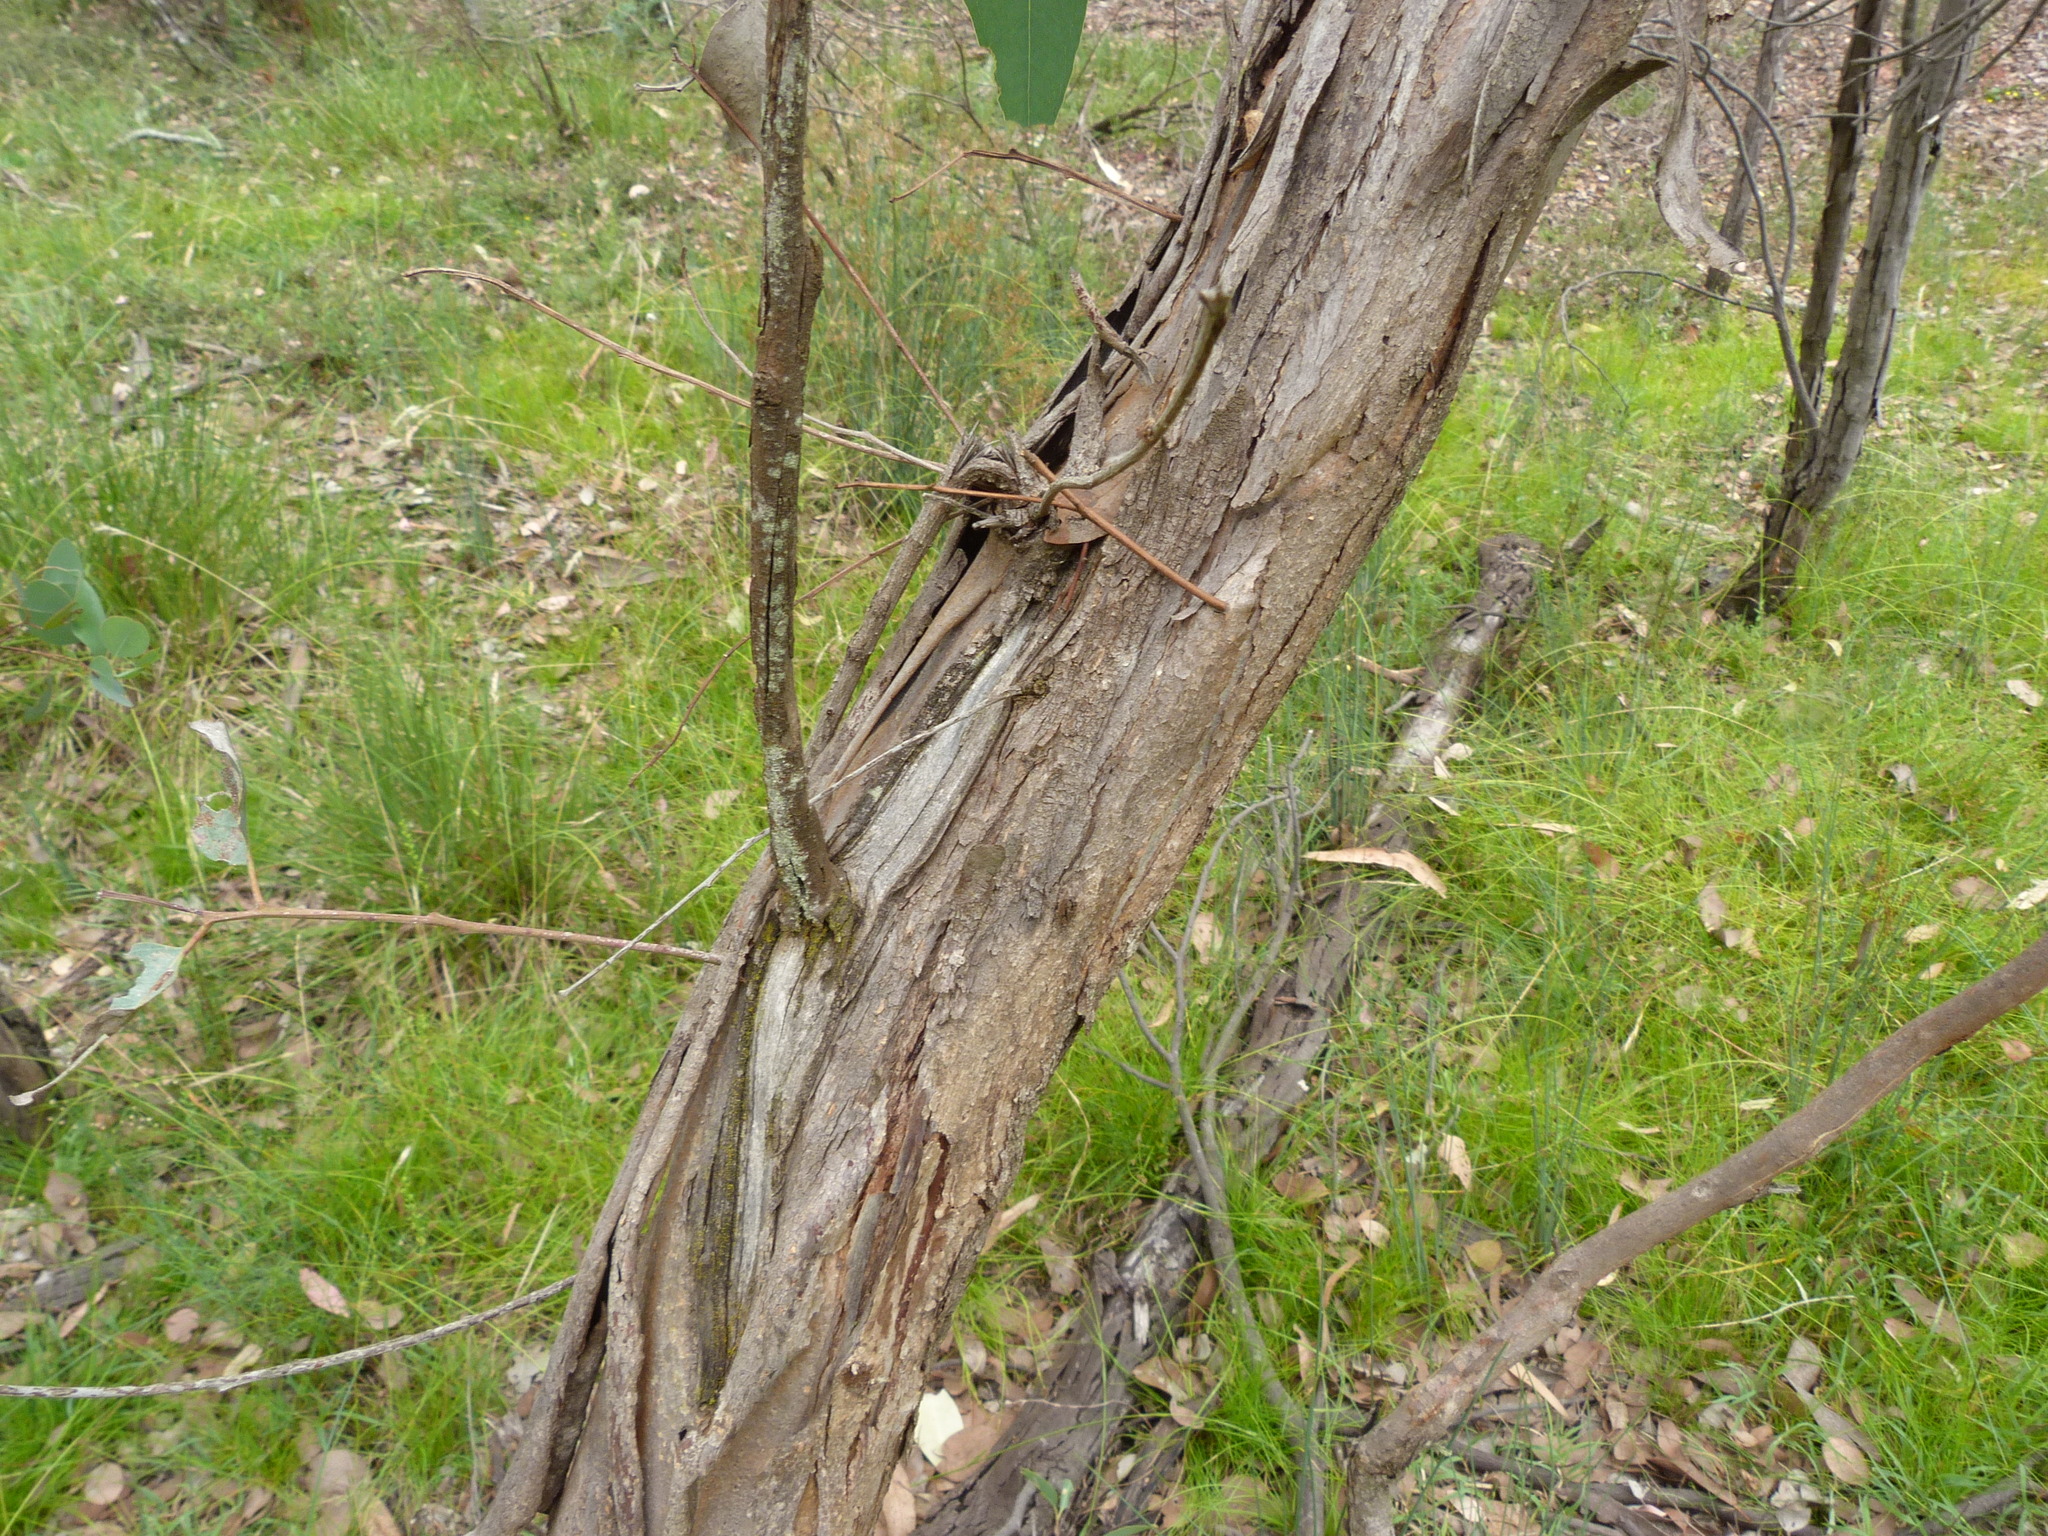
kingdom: Plantae
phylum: Tracheophyta
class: Magnoliopsida
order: Myrtales
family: Myrtaceae
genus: Eucalyptus
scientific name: Eucalyptus polyanthemos
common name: Red-box
